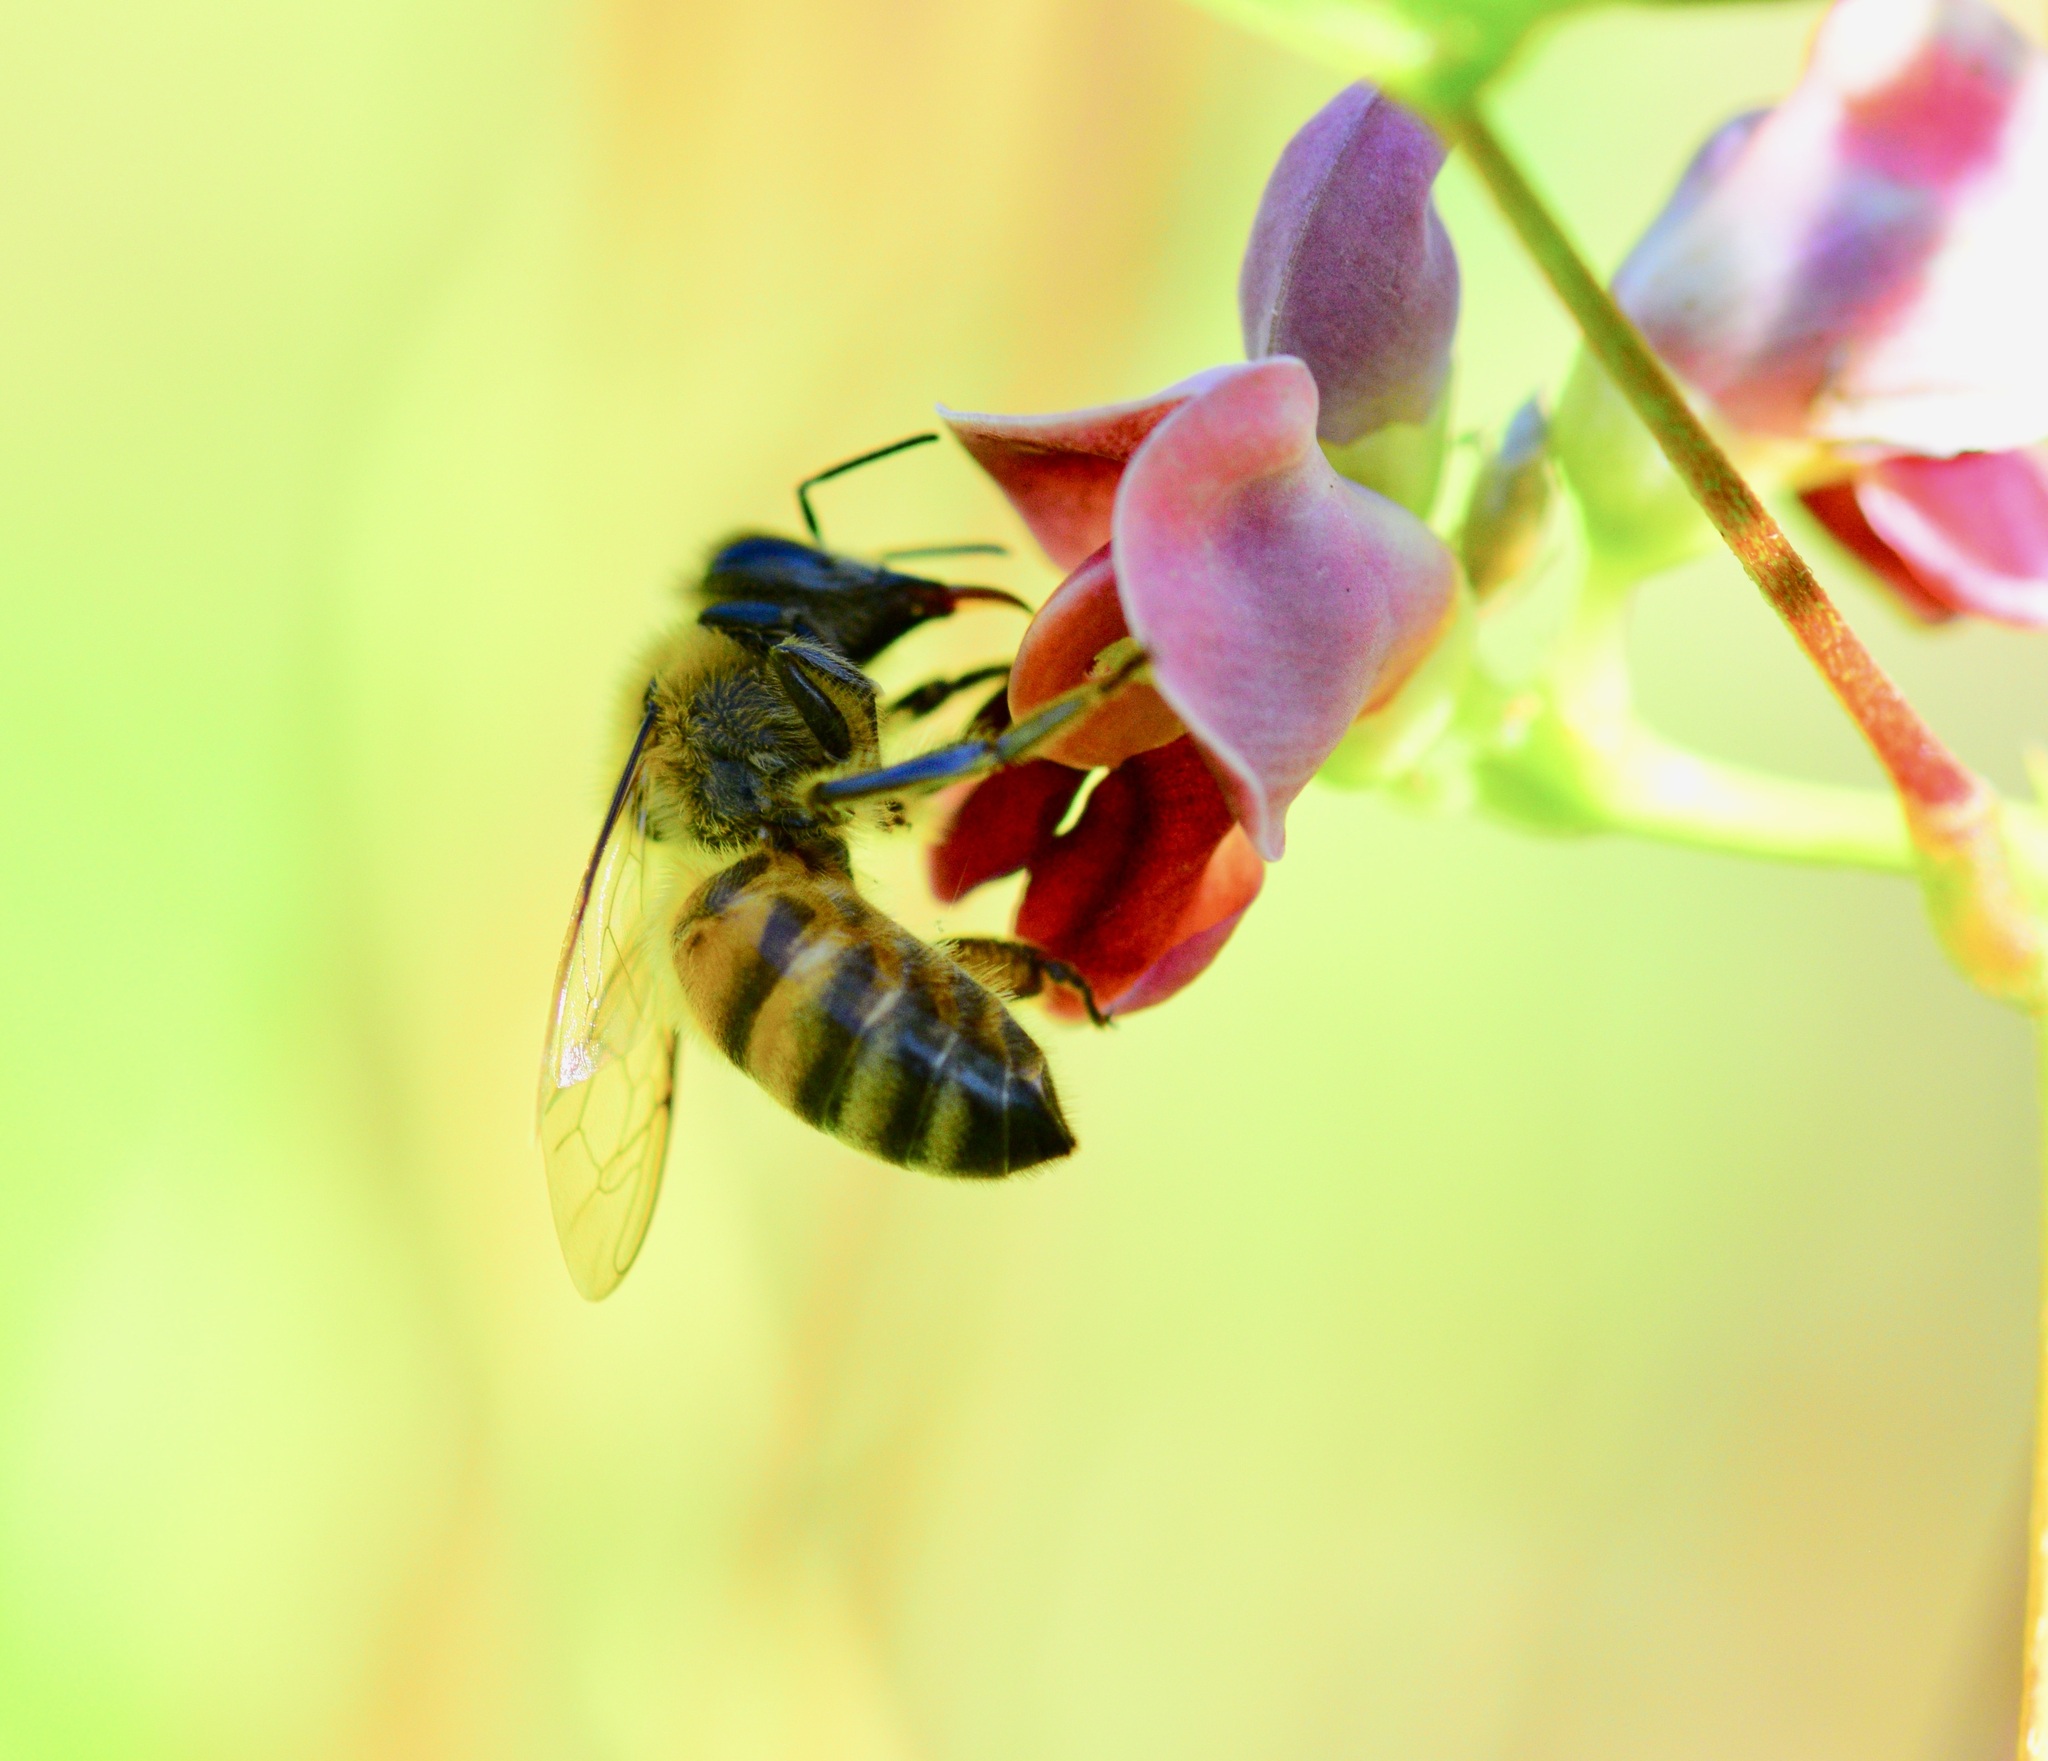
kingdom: Animalia
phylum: Arthropoda
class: Insecta
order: Hymenoptera
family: Apidae
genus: Apis
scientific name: Apis mellifera
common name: Honey bee
